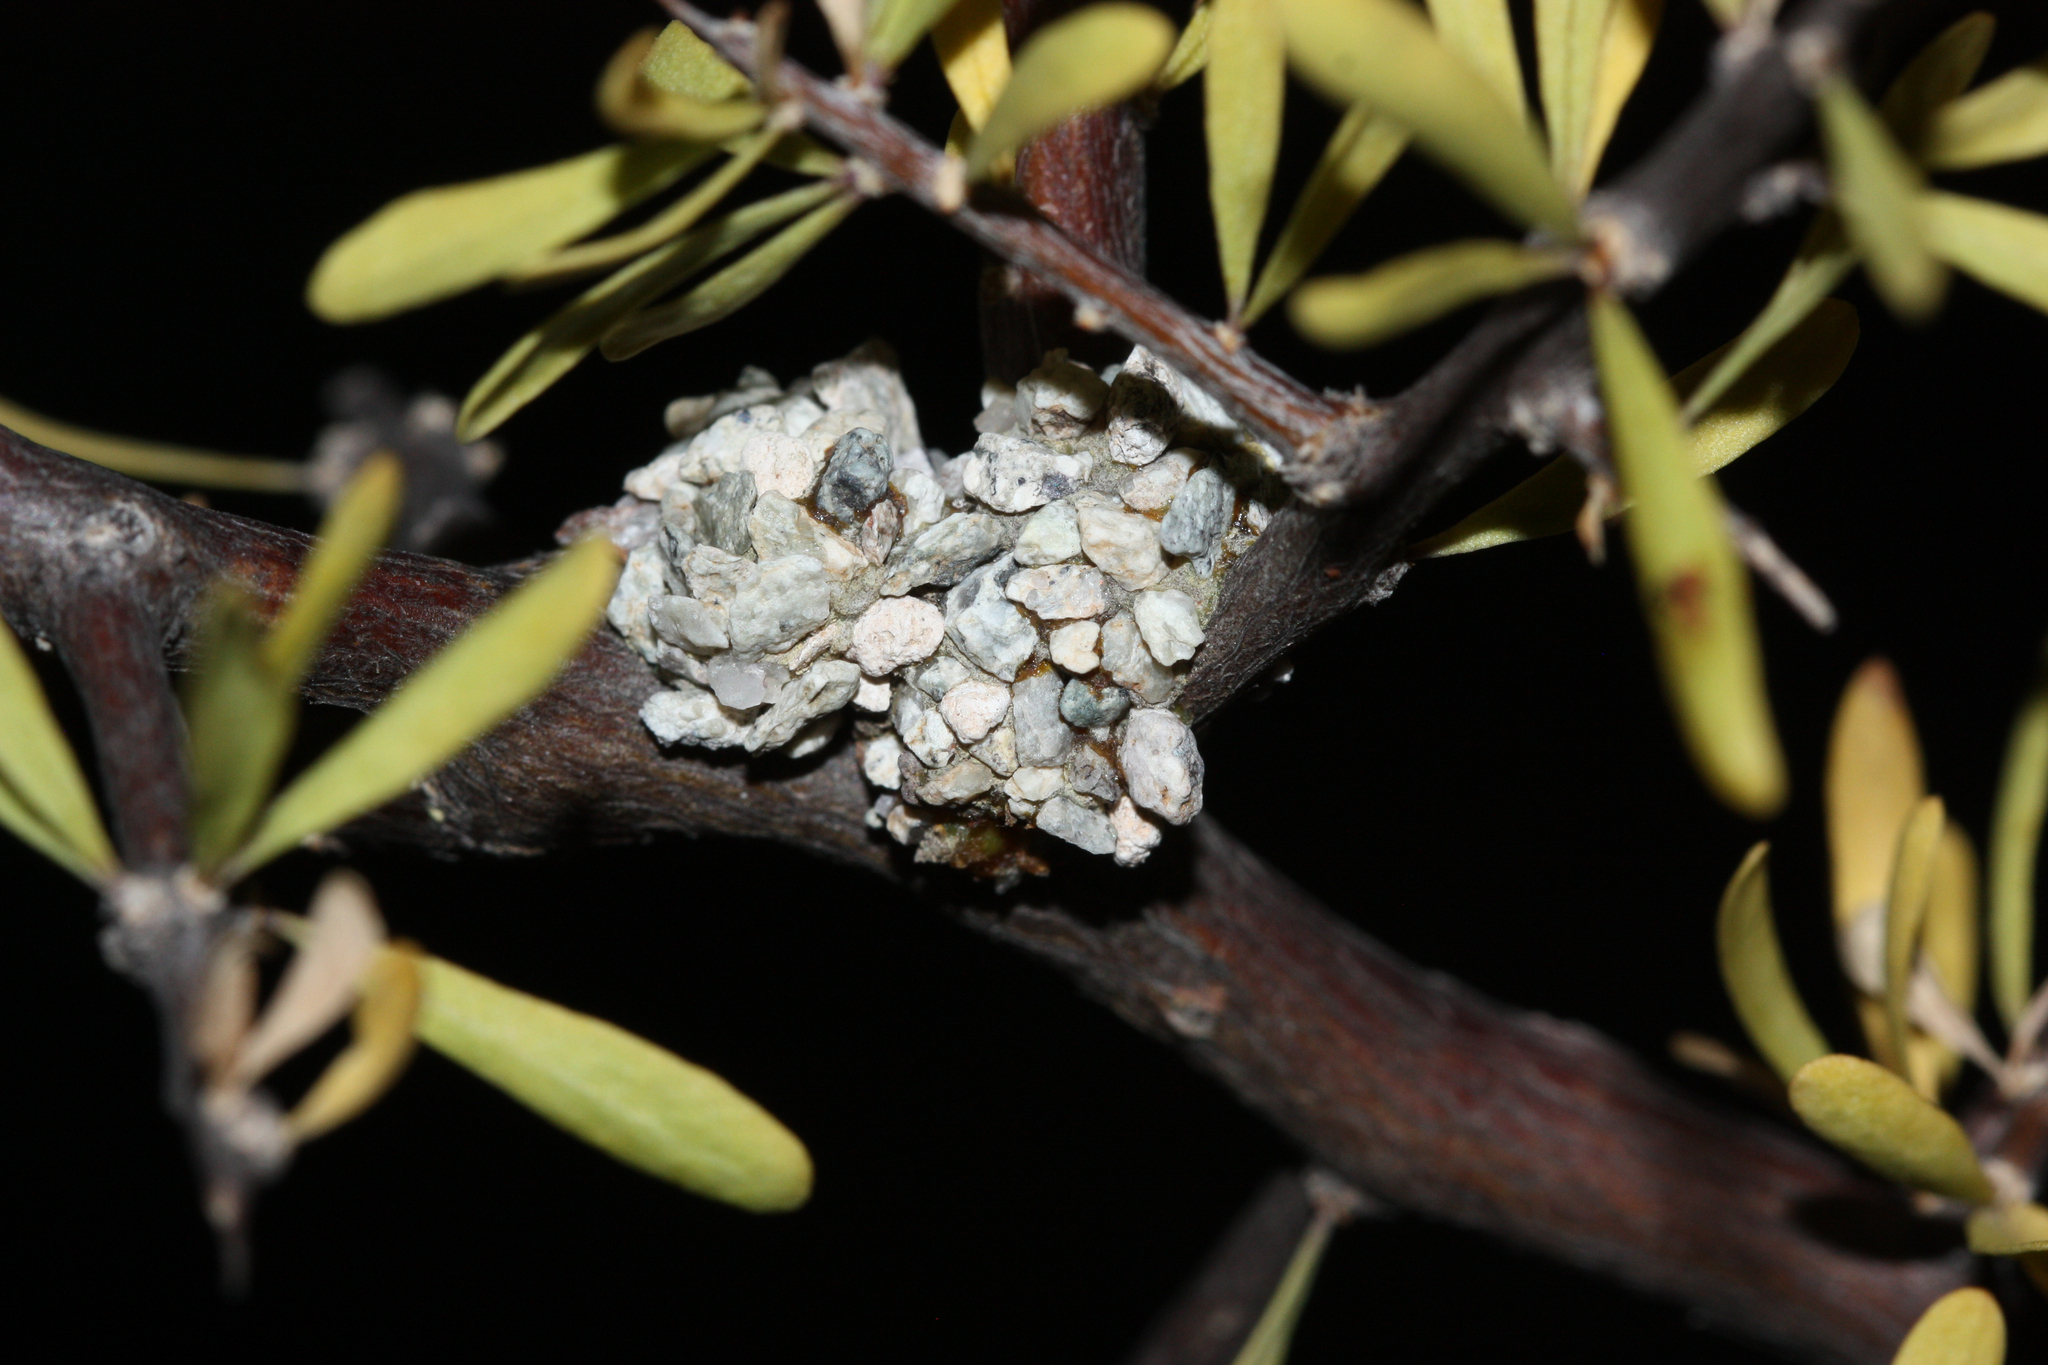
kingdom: Animalia
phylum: Arthropoda
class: Insecta
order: Hymenoptera
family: Megachilidae
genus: Dianthidium
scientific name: Dianthidium
